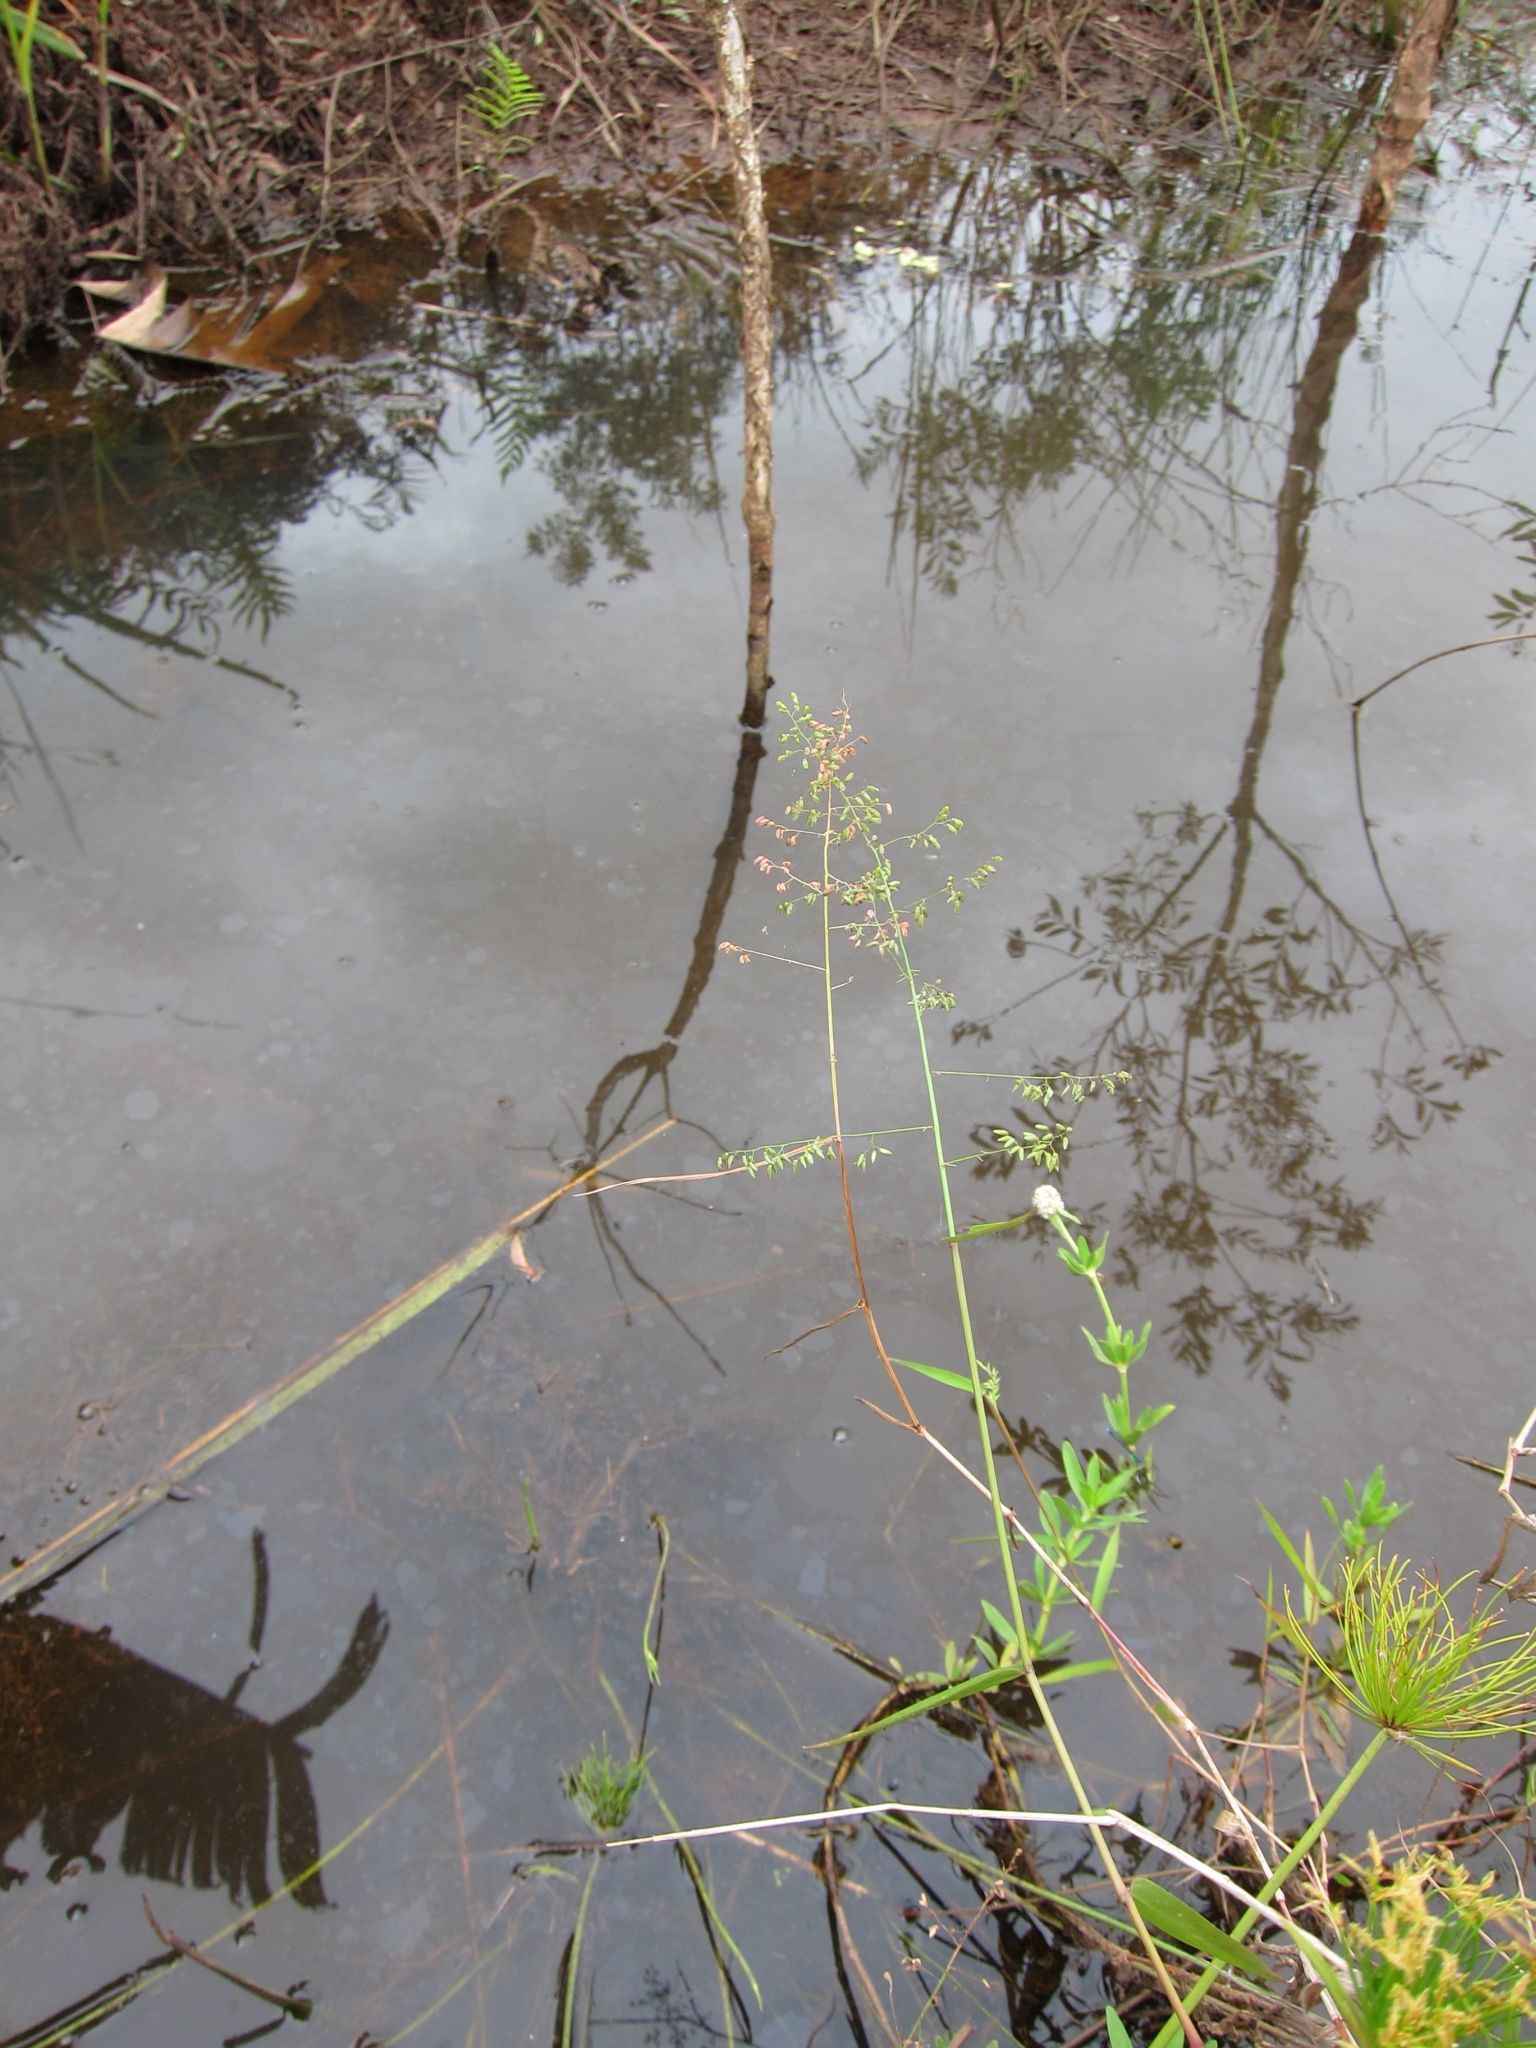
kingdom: Plantae
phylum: Tracheophyta
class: Liliopsida
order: Poales
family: Poaceae
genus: Sacciolepis
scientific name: Sacciolepis curvata
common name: Forest hood grass
